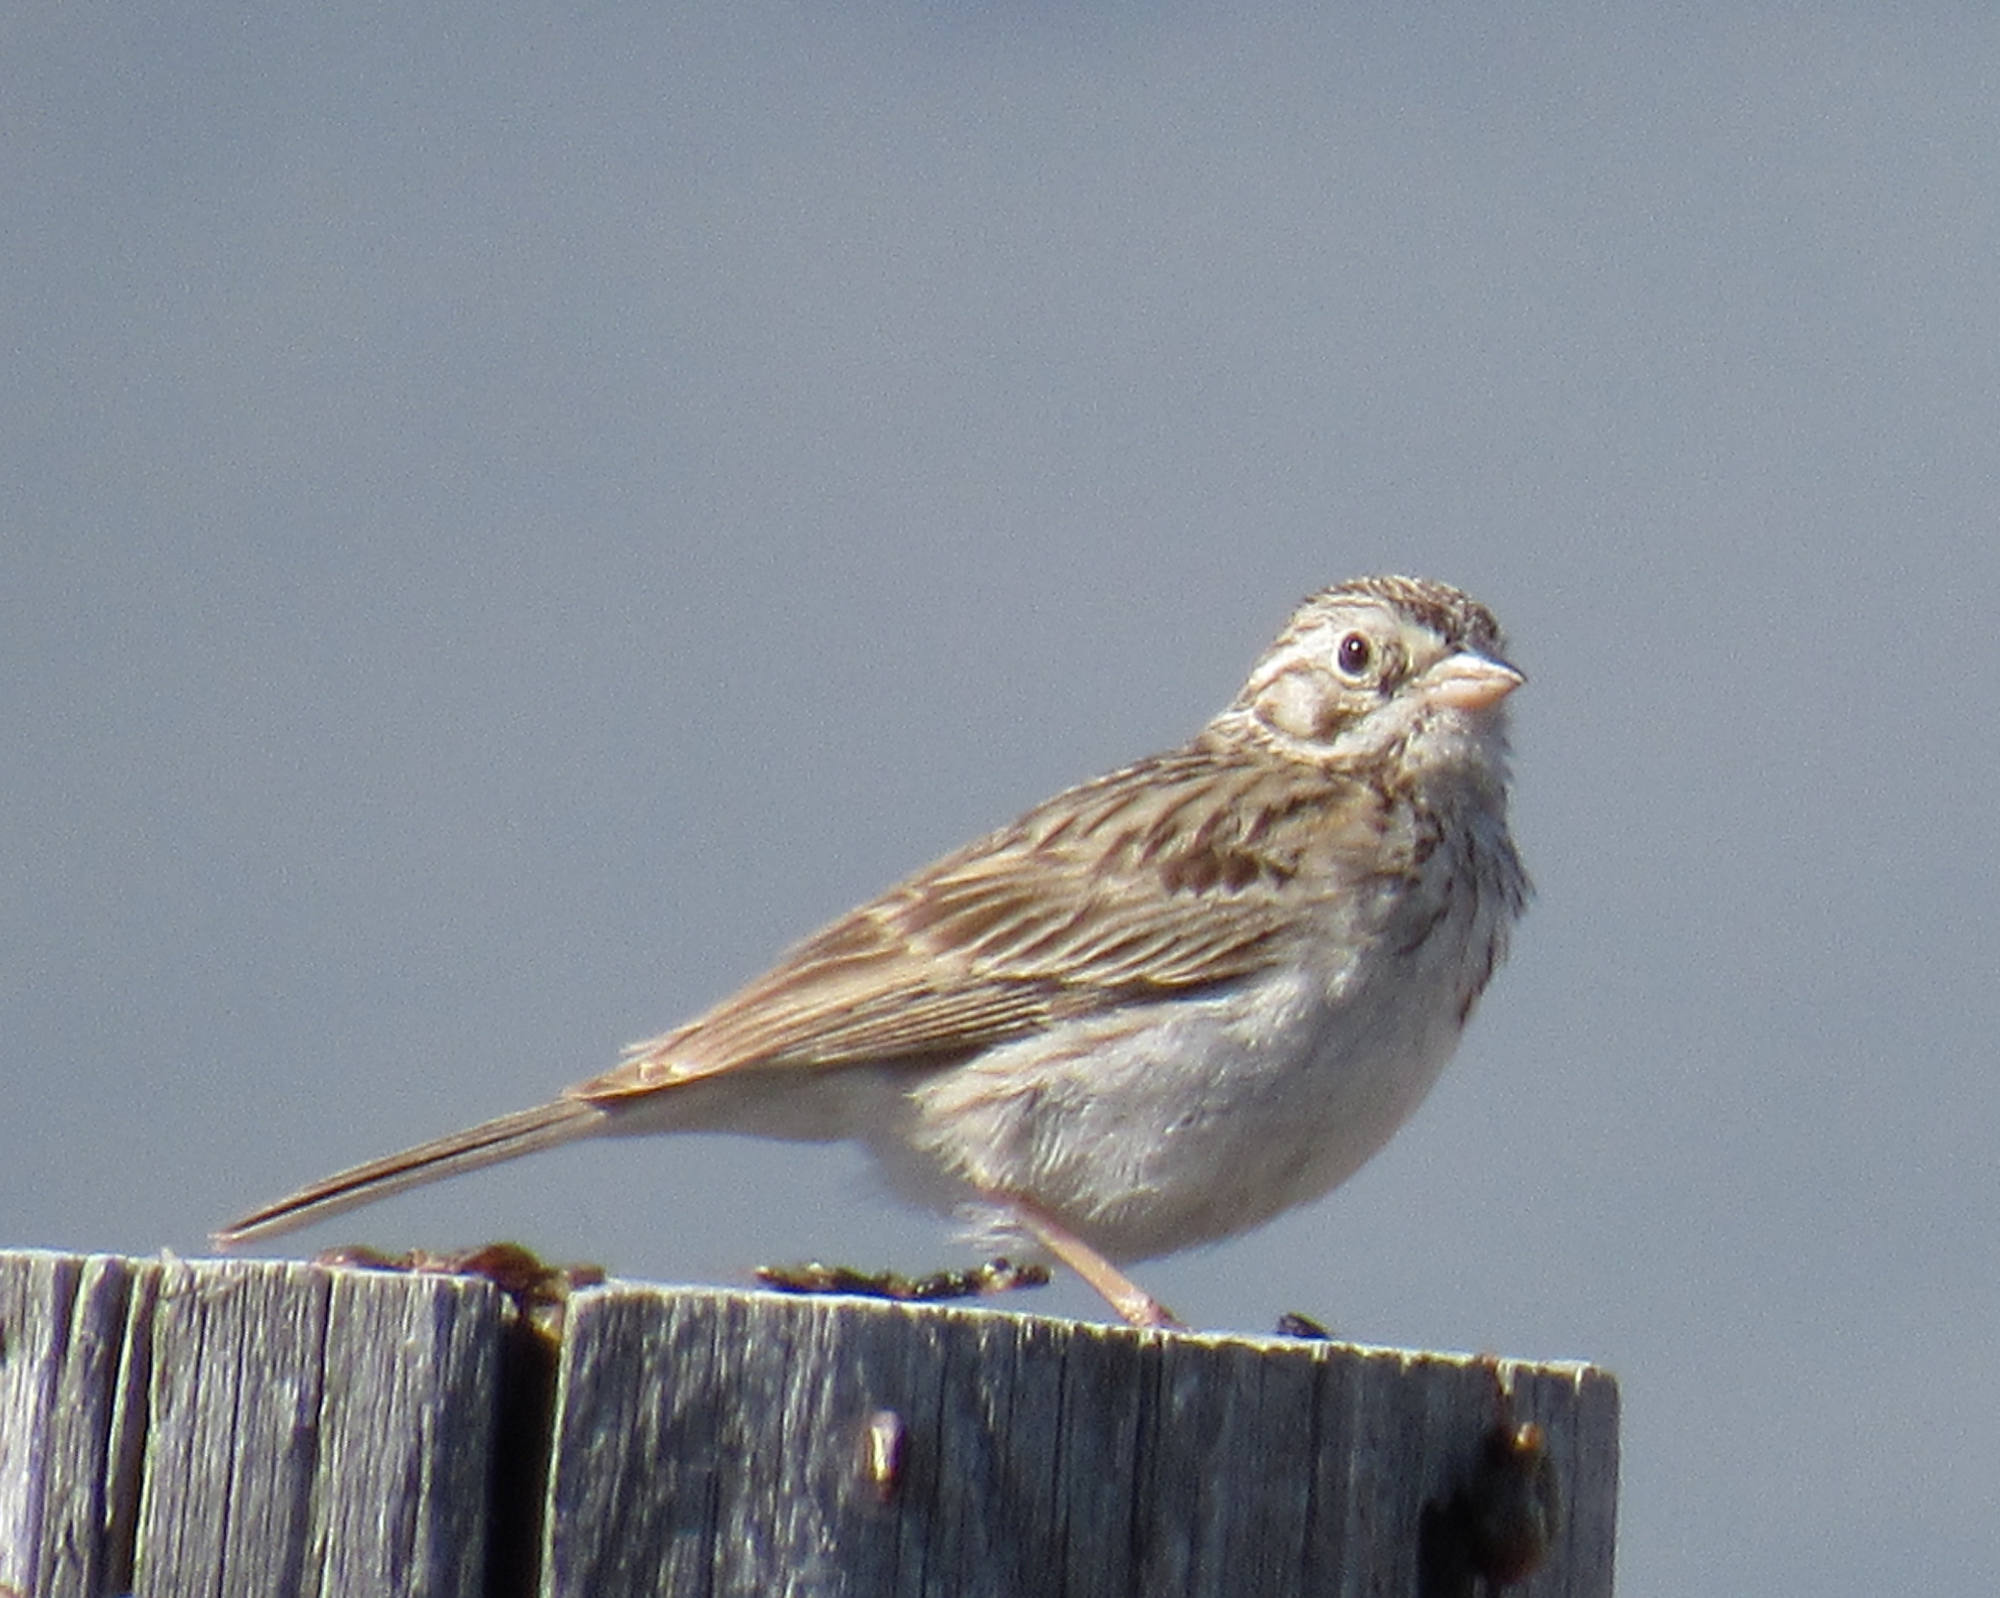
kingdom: Animalia
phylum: Chordata
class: Aves
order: Passeriformes
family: Passerellidae
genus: Pooecetes
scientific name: Pooecetes gramineus
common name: Vesper sparrow
